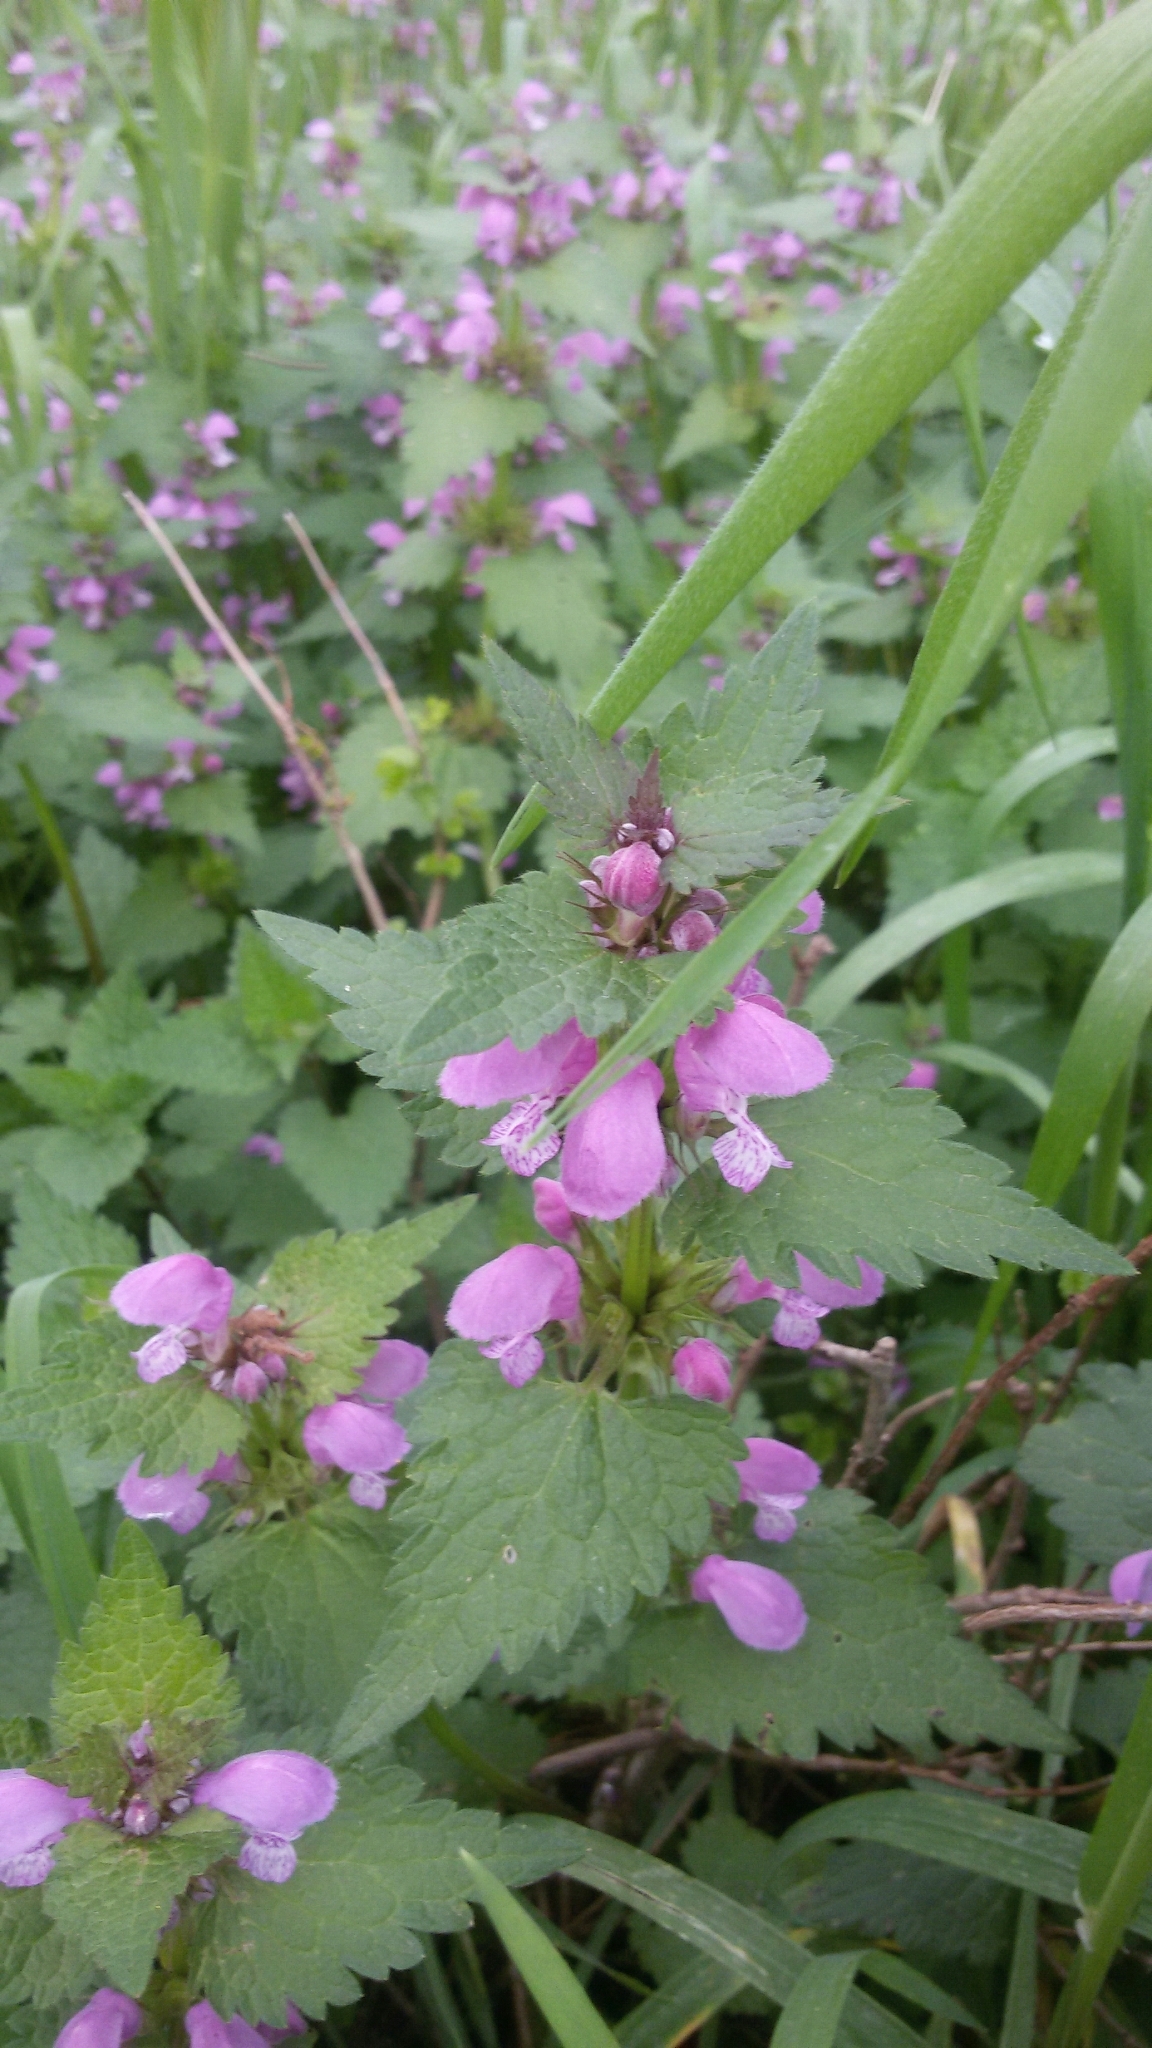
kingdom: Plantae
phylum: Tracheophyta
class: Magnoliopsida
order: Lamiales
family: Lamiaceae
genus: Lamium
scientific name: Lamium maculatum
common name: Spotted dead-nettle
